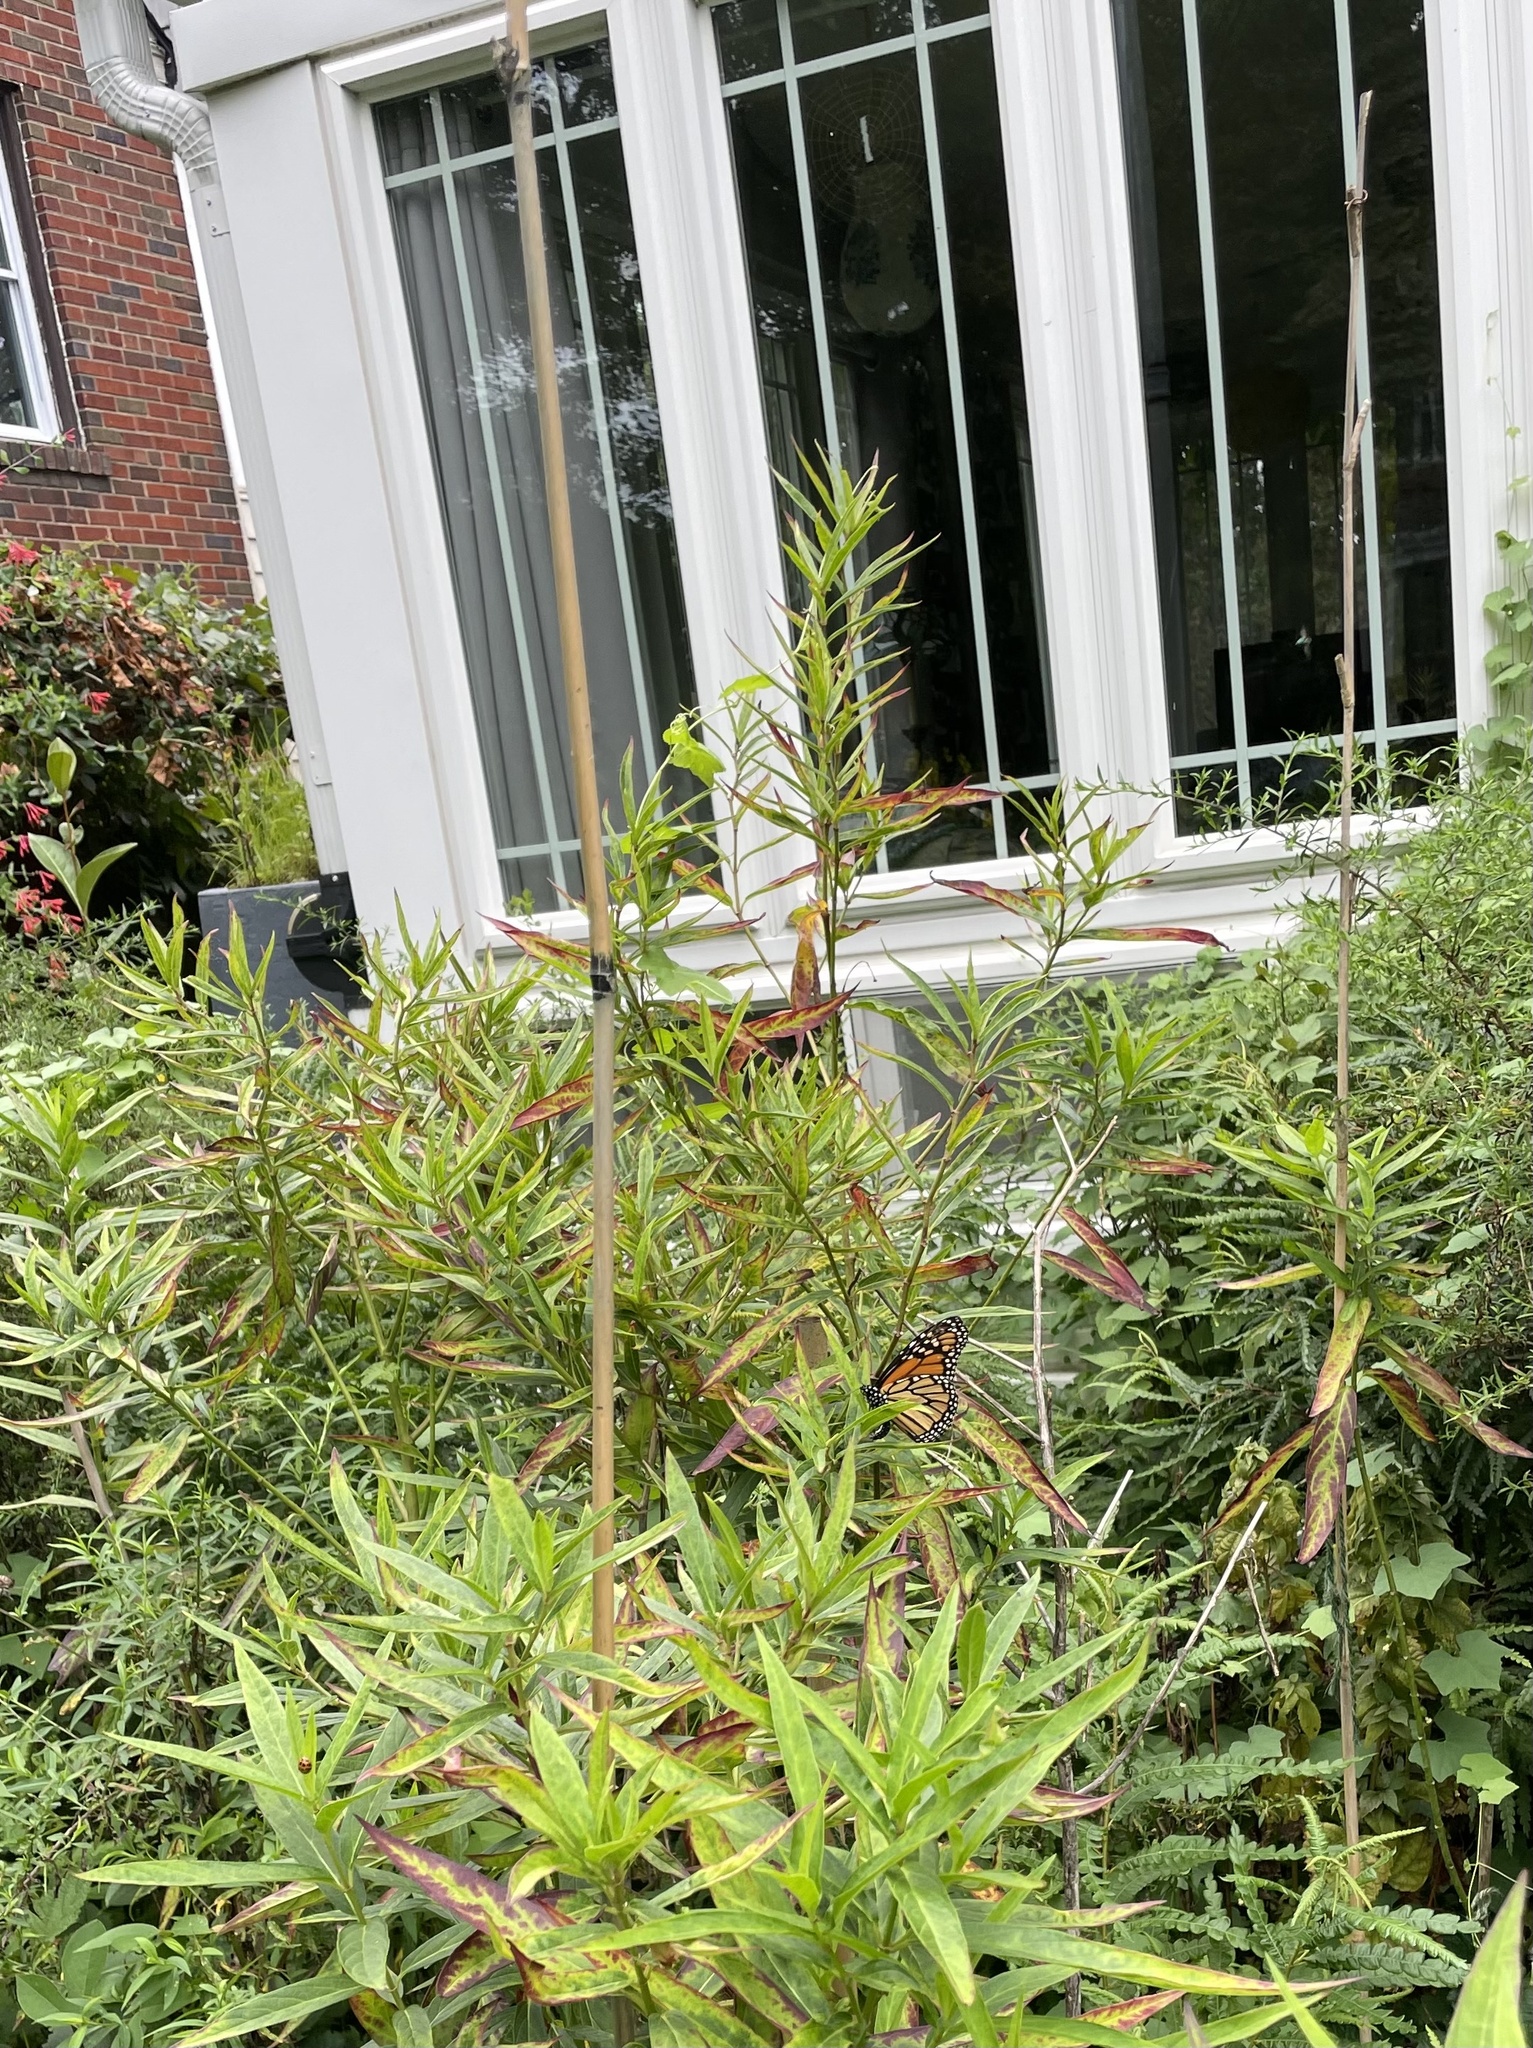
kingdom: Animalia
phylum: Arthropoda
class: Insecta
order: Lepidoptera
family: Nymphalidae
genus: Danaus
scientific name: Danaus plexippus
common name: Monarch
